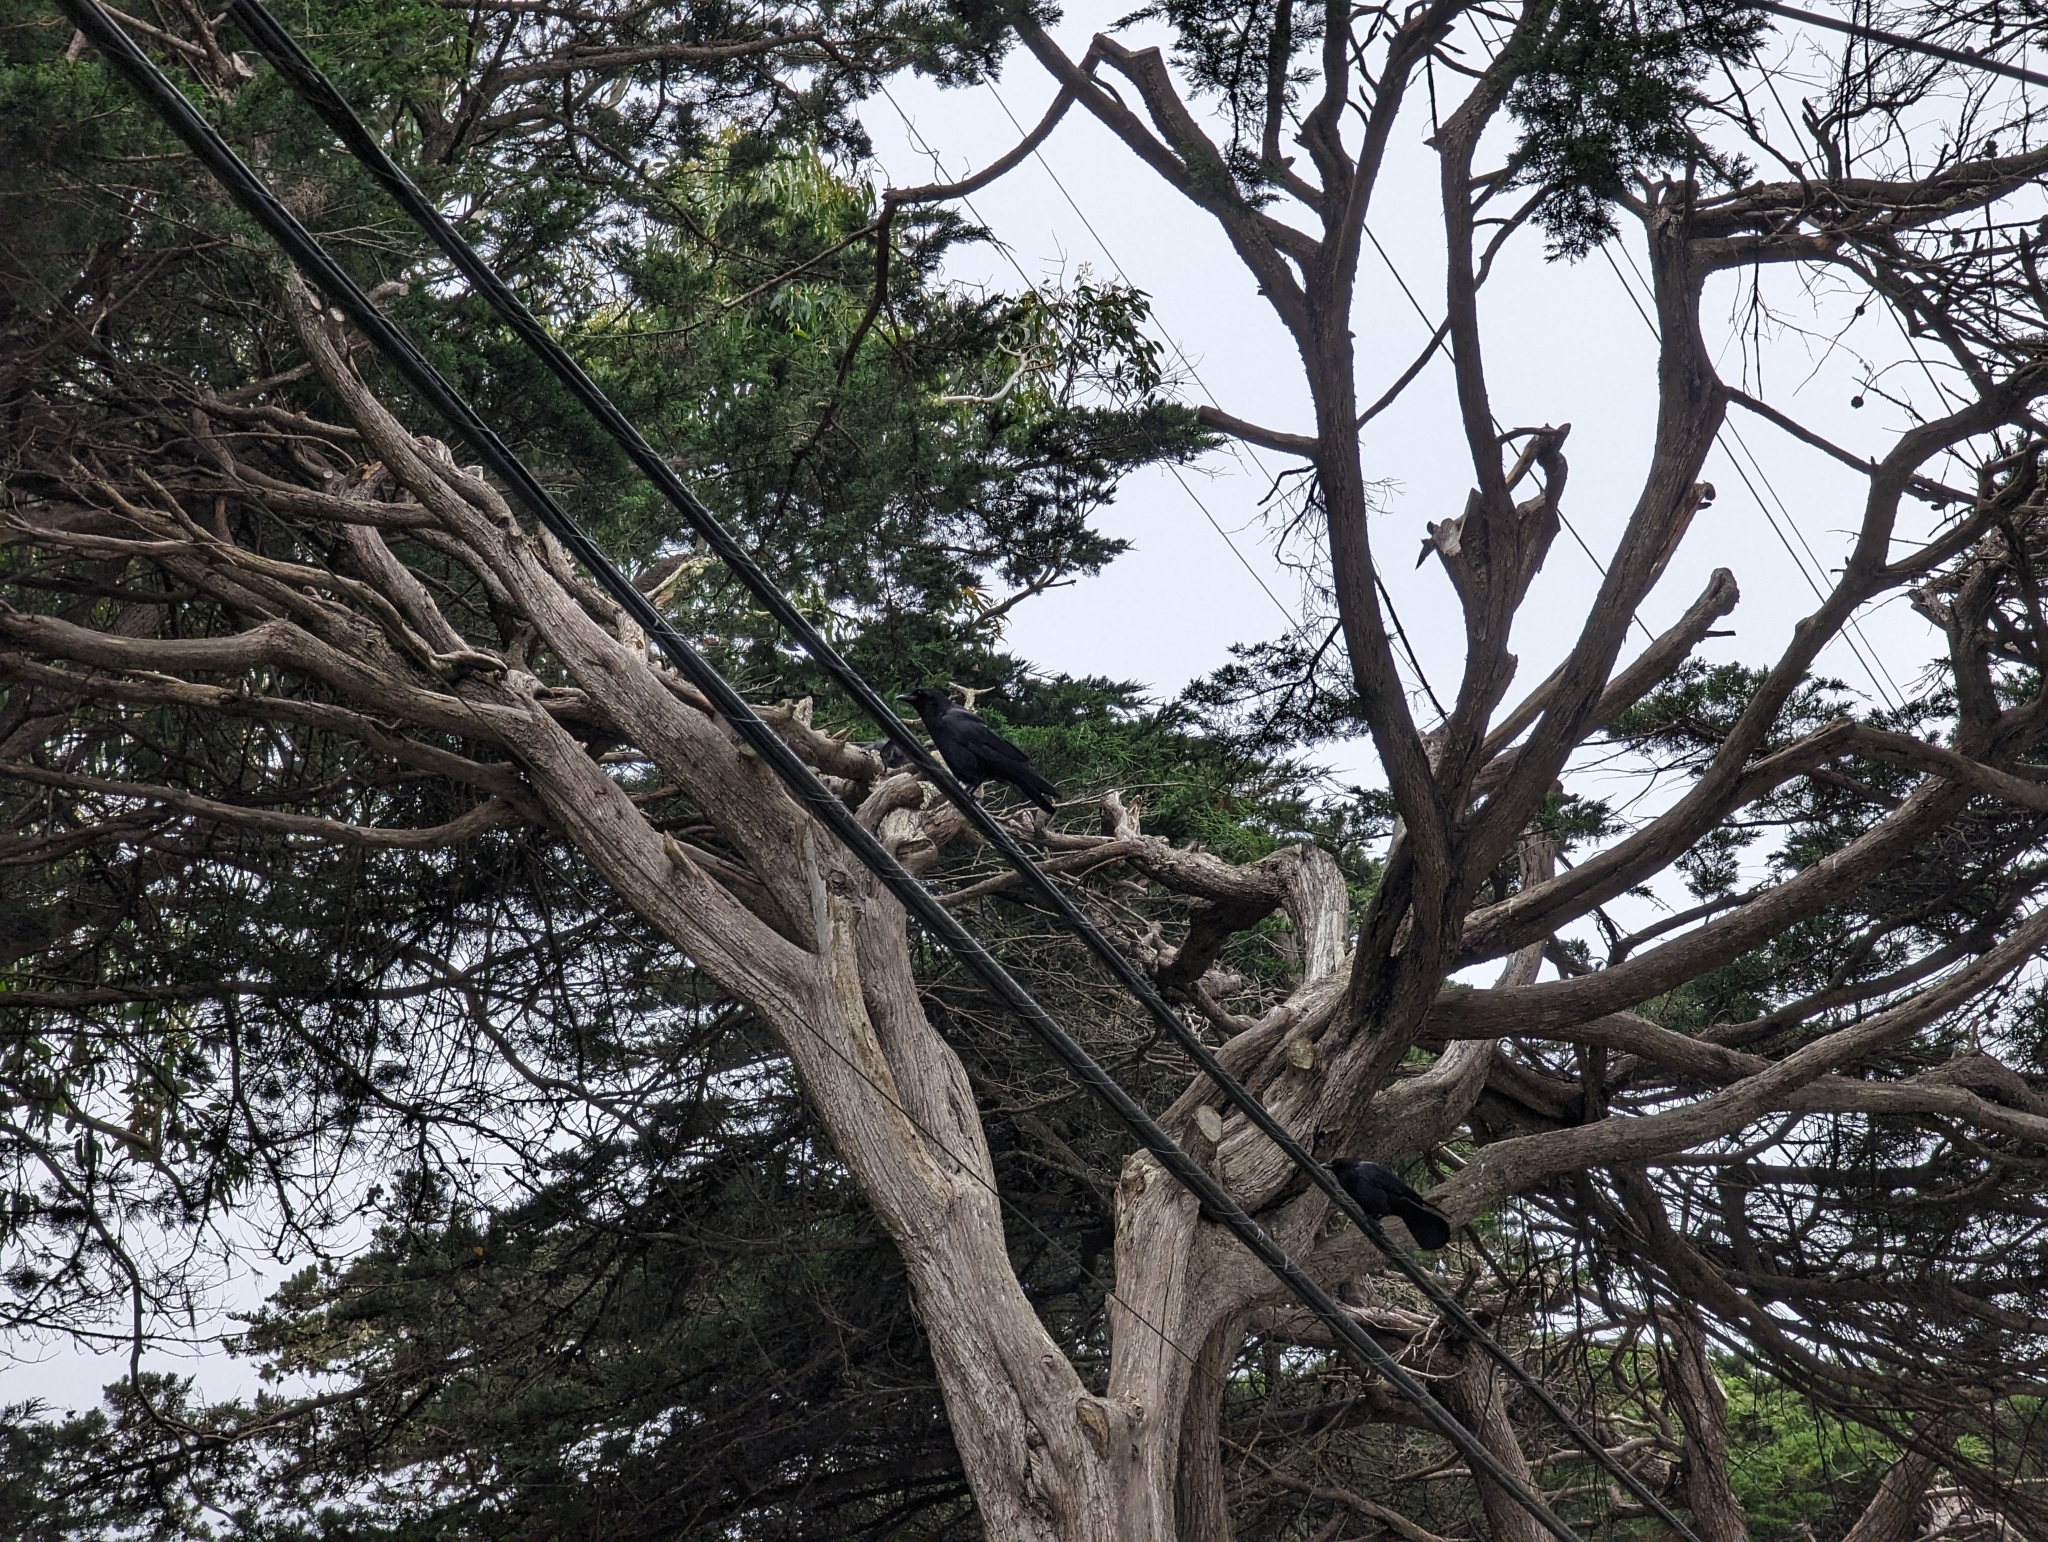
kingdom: Animalia
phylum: Chordata
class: Aves
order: Passeriformes
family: Corvidae
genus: Corvus
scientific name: Corvus brachyrhynchos
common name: American crow
